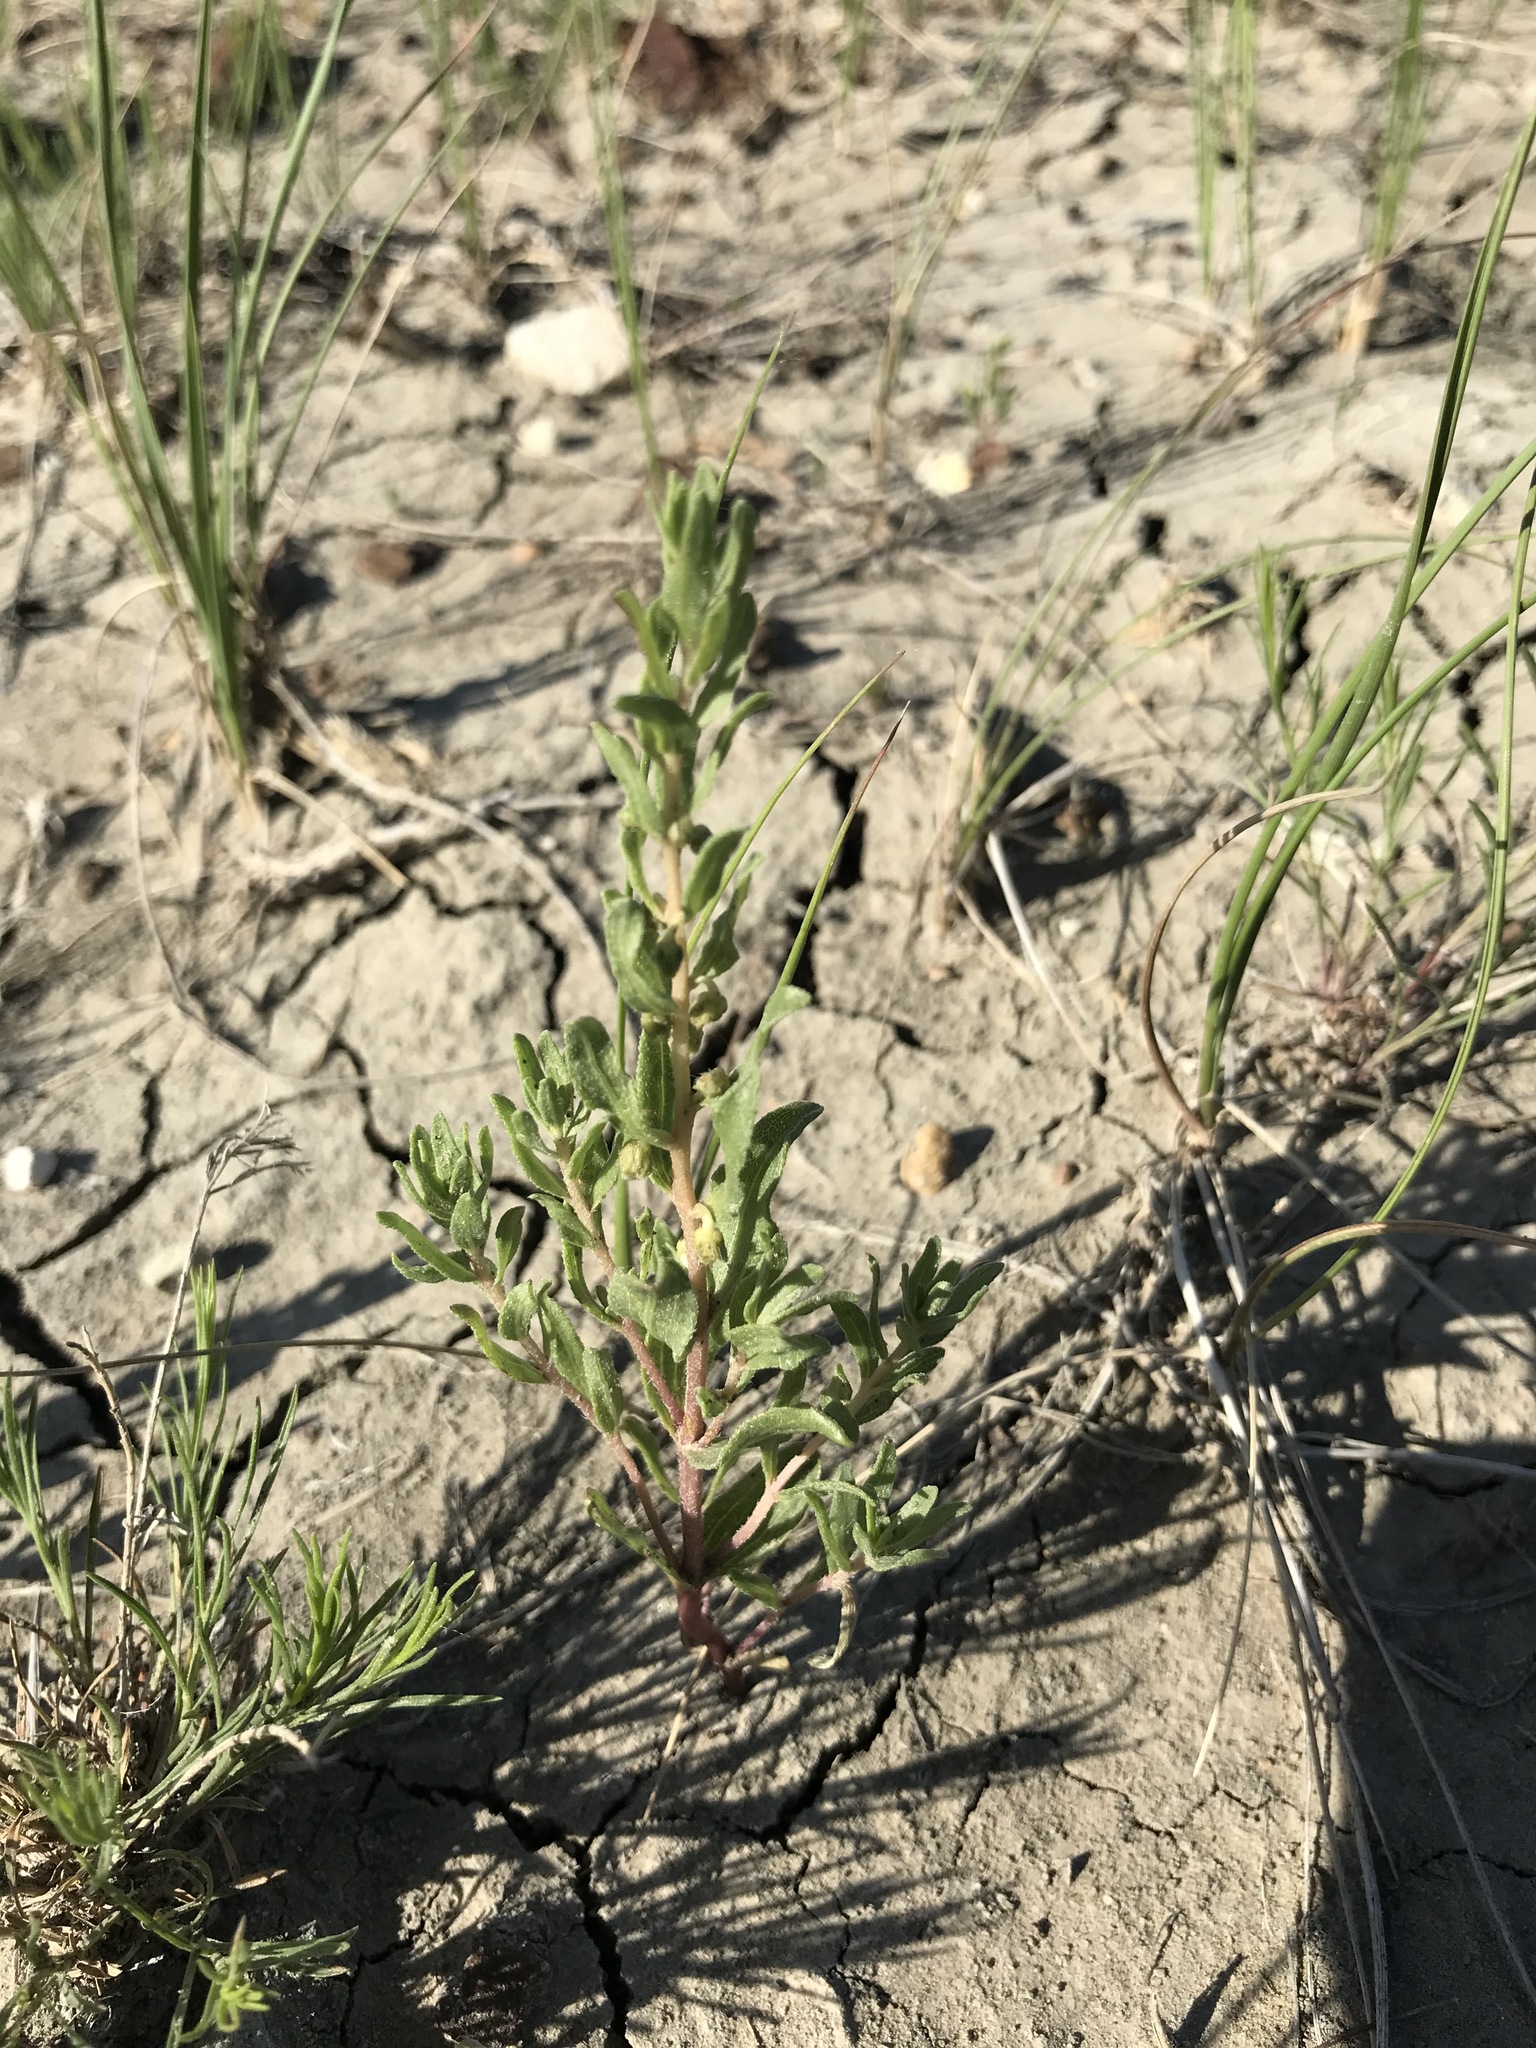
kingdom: Plantae
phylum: Tracheophyta
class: Magnoliopsida
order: Asterales
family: Asteraceae
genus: Iva
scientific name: Iva axillaris
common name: Poverty sumpweed
